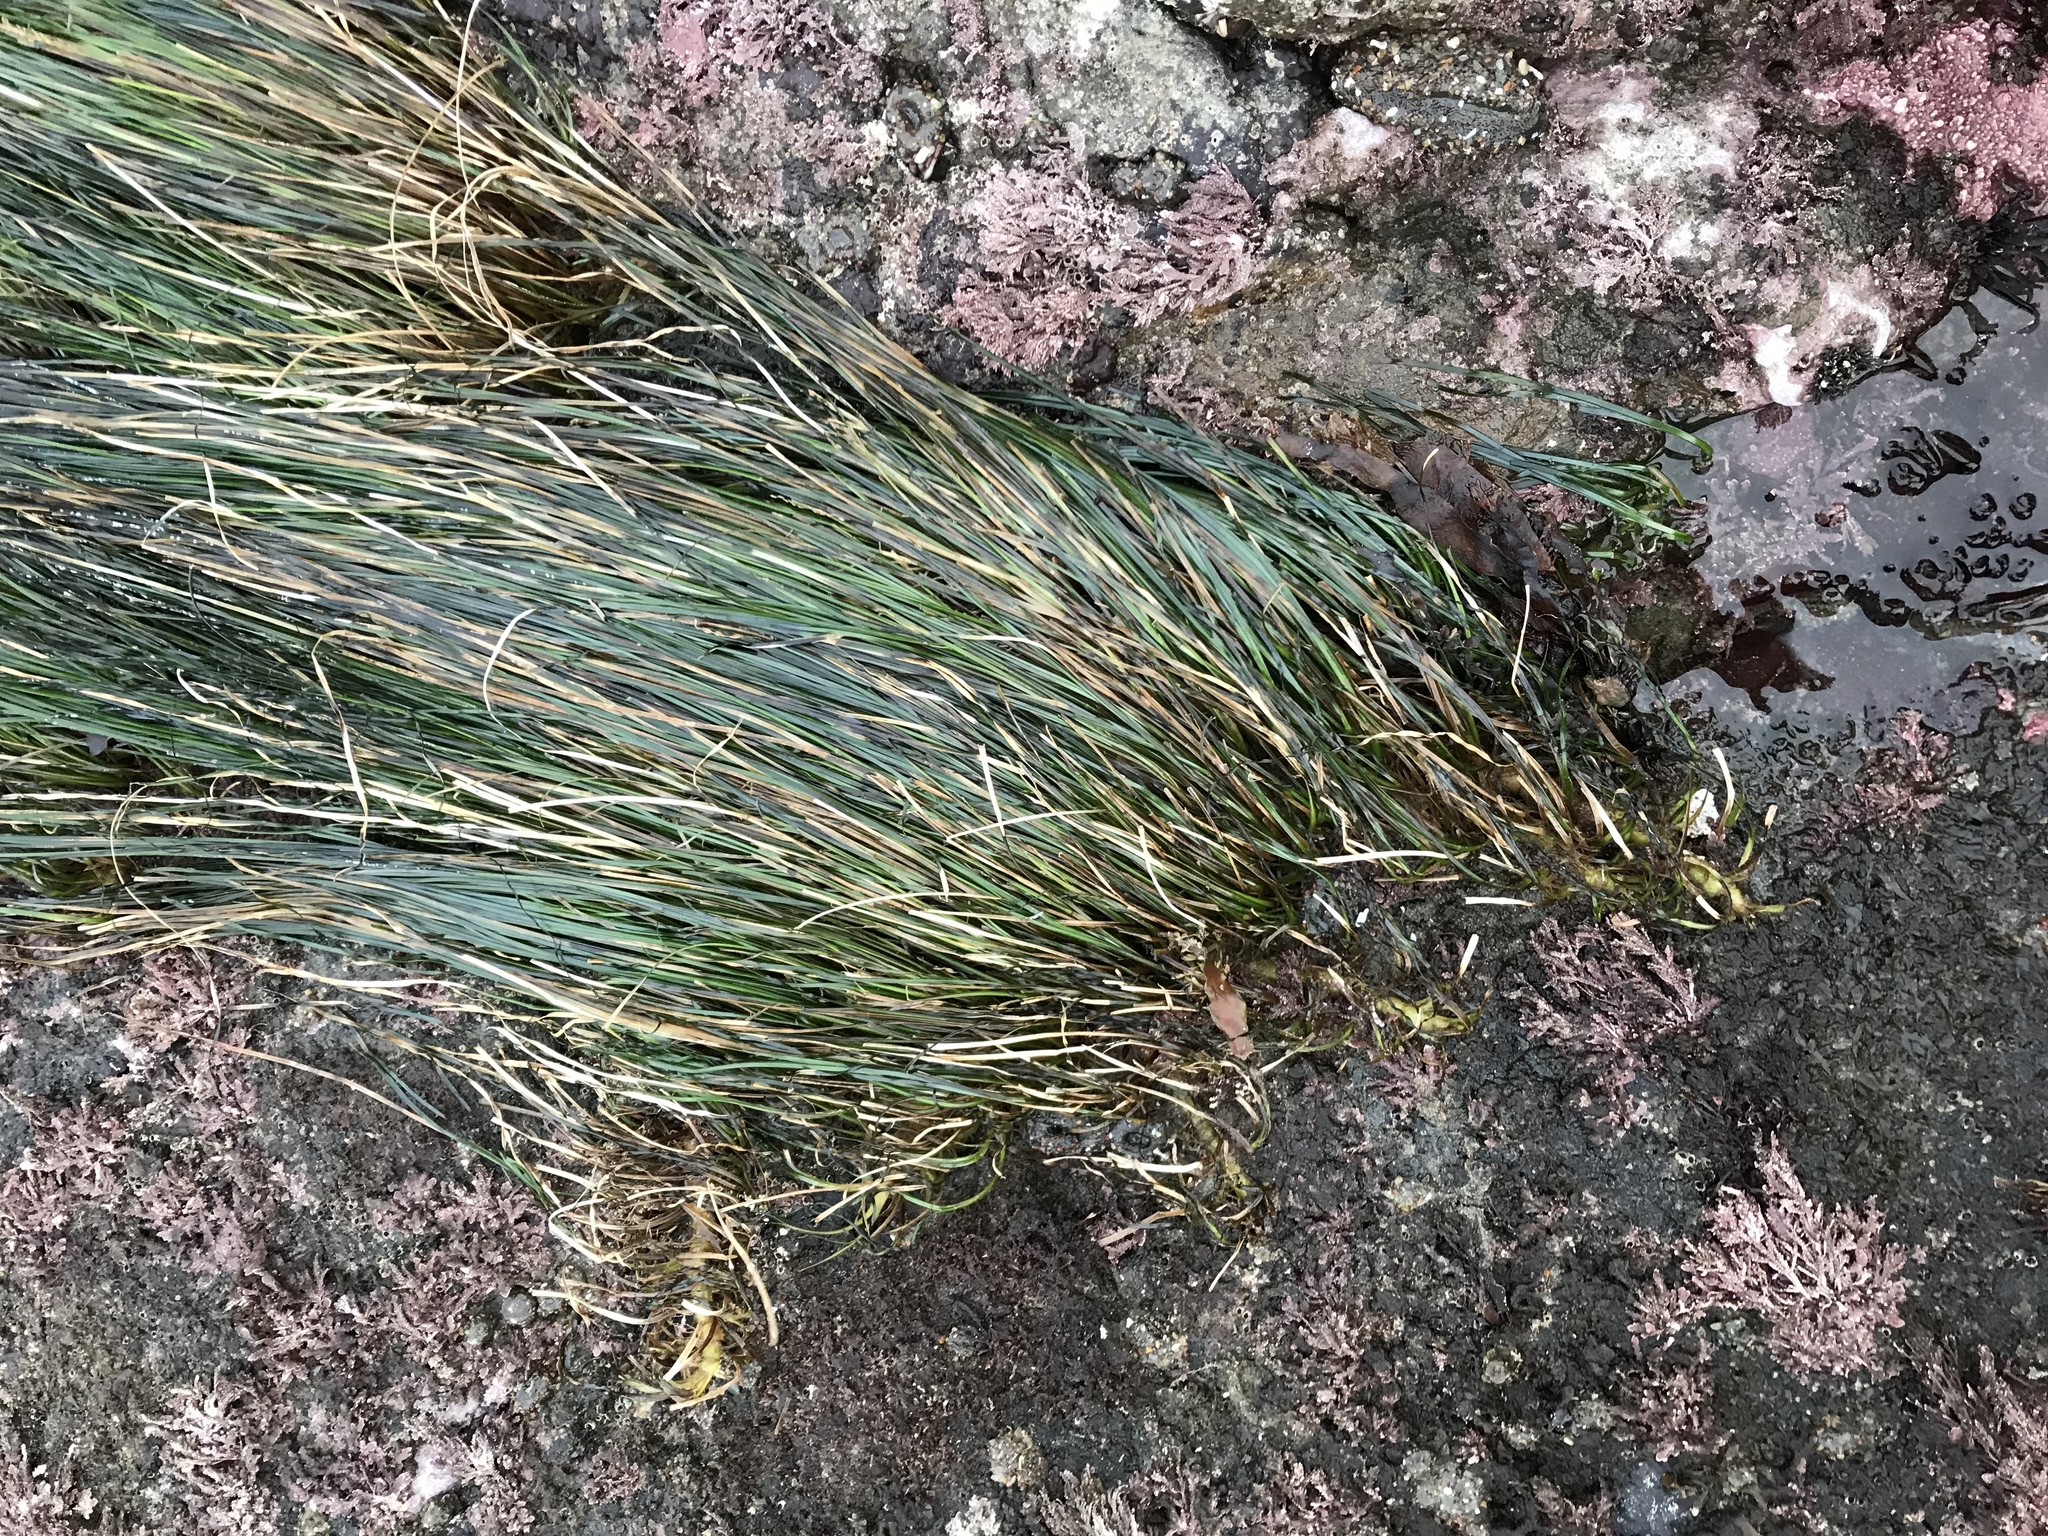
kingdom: Plantae
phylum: Tracheophyta
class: Liliopsida
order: Alismatales
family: Zosteraceae
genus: Phyllospadix
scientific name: Phyllospadix scouleri
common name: Species code: ps
